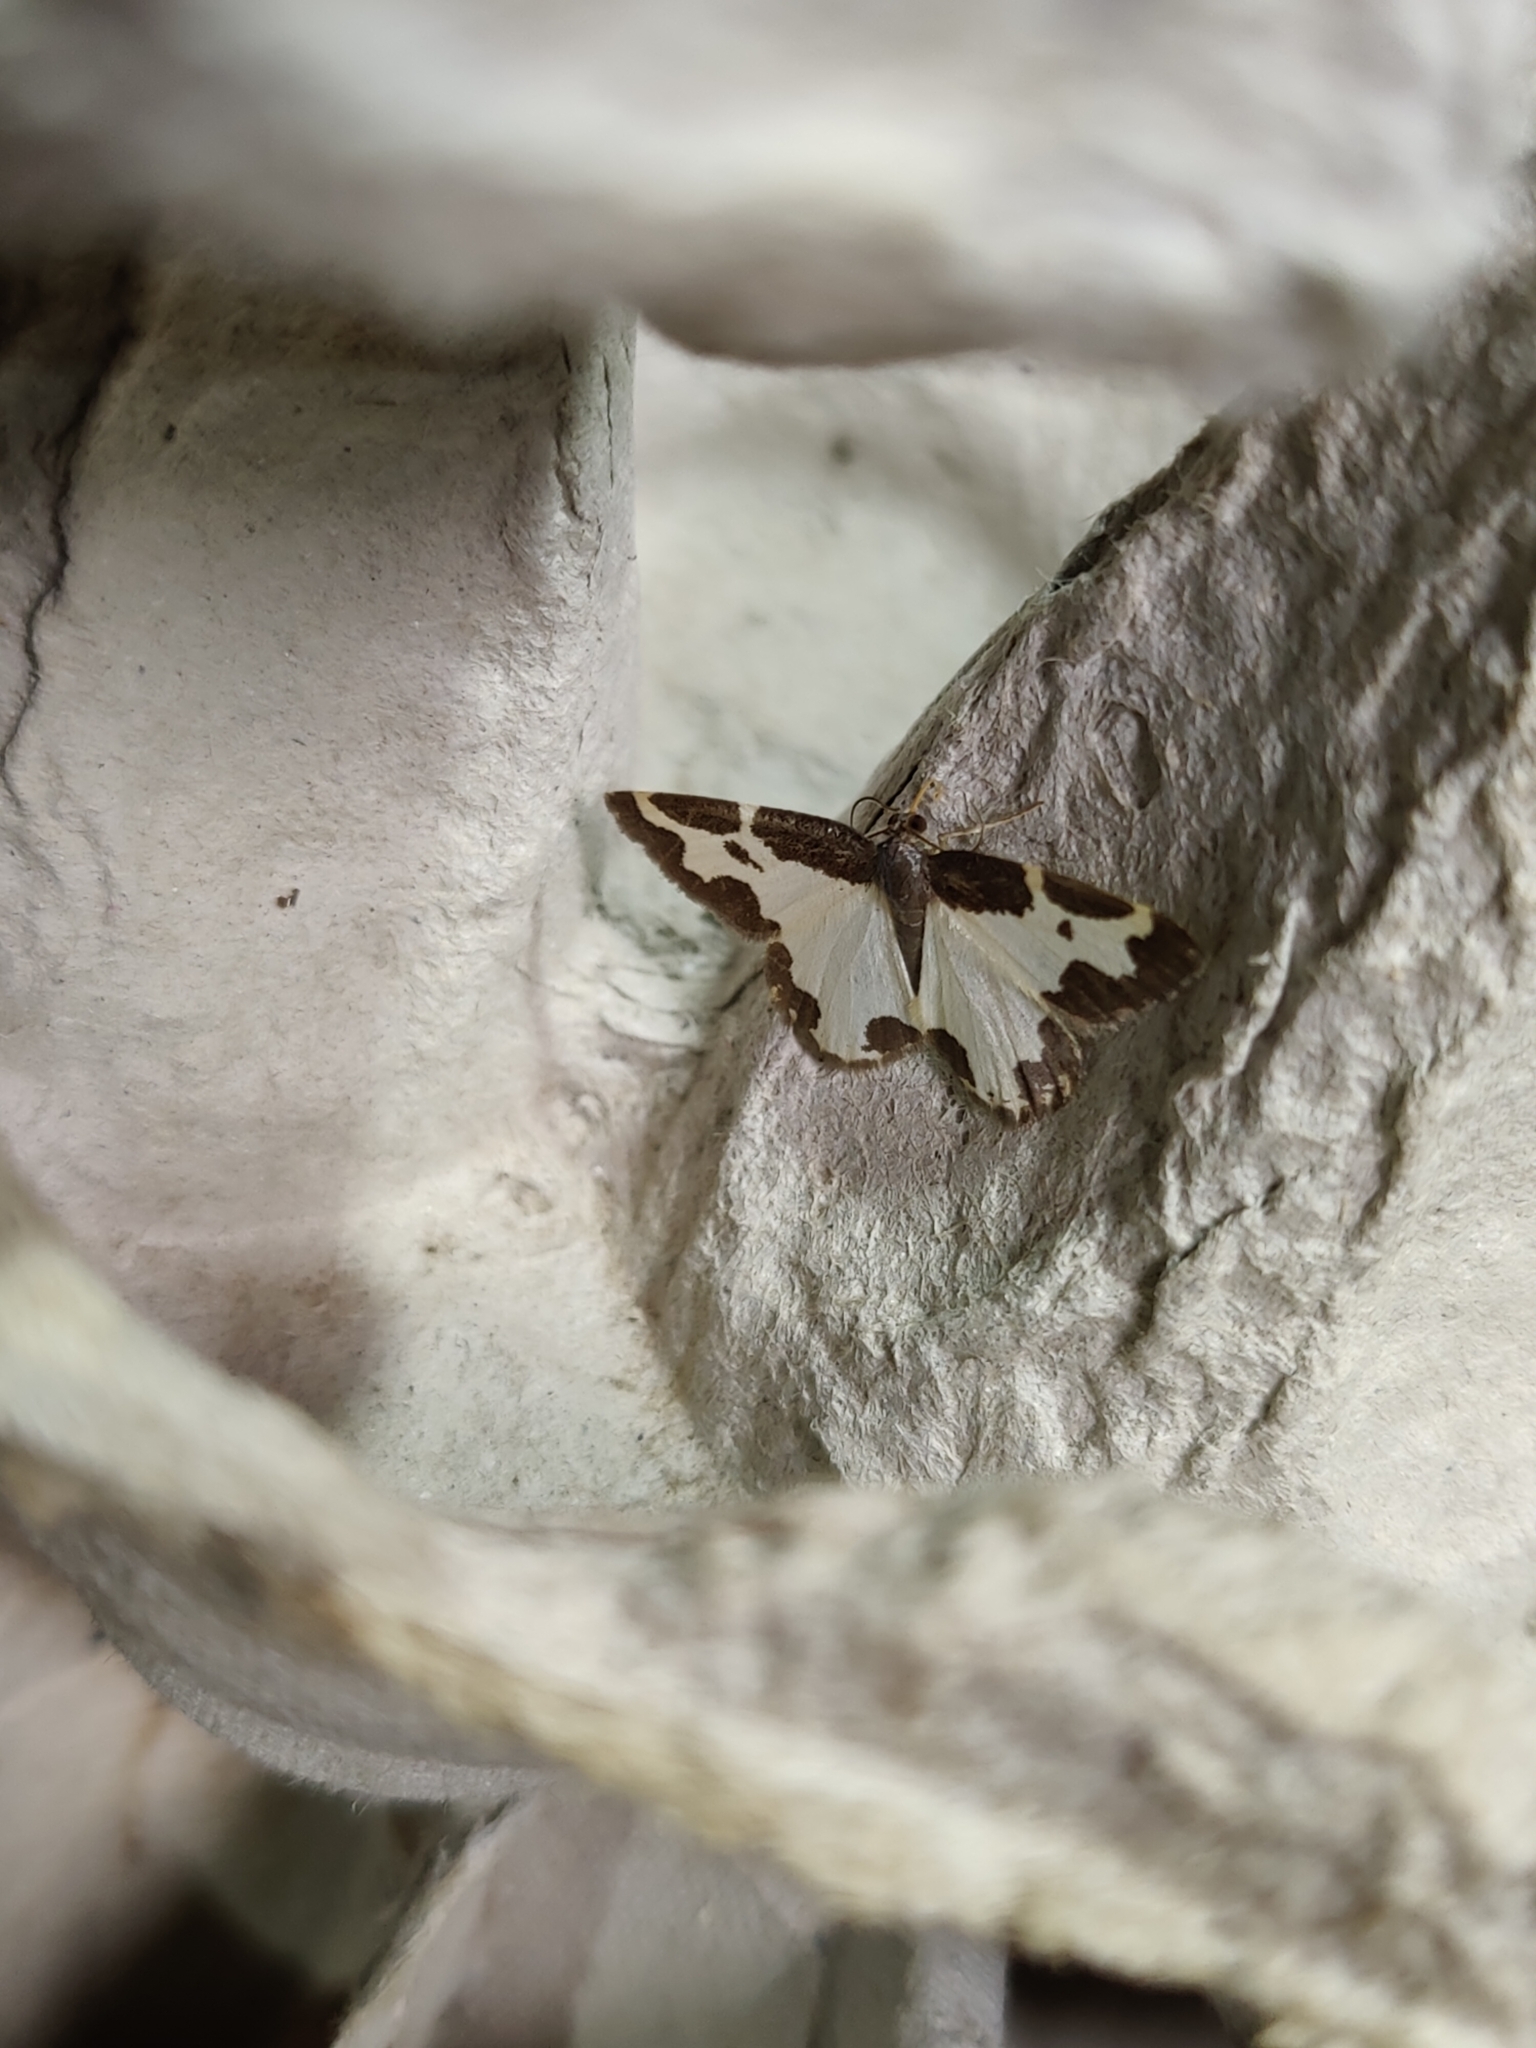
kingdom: Animalia
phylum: Arthropoda
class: Insecta
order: Lepidoptera
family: Geometridae
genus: Lomaspilis
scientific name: Lomaspilis marginata
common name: Clouded border
